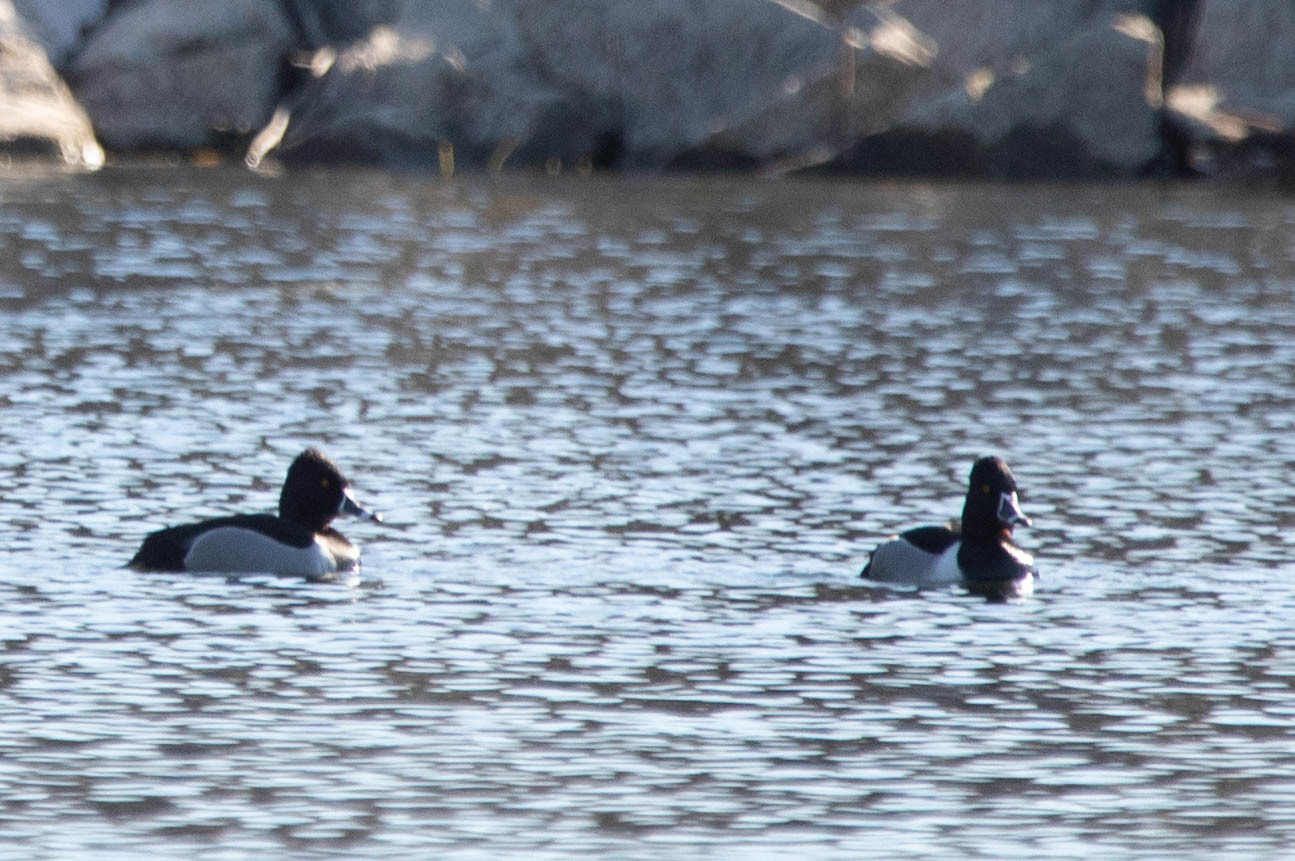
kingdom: Animalia
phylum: Chordata
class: Aves
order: Anseriformes
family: Anatidae
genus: Aythya
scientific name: Aythya collaris
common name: Ring-necked duck
